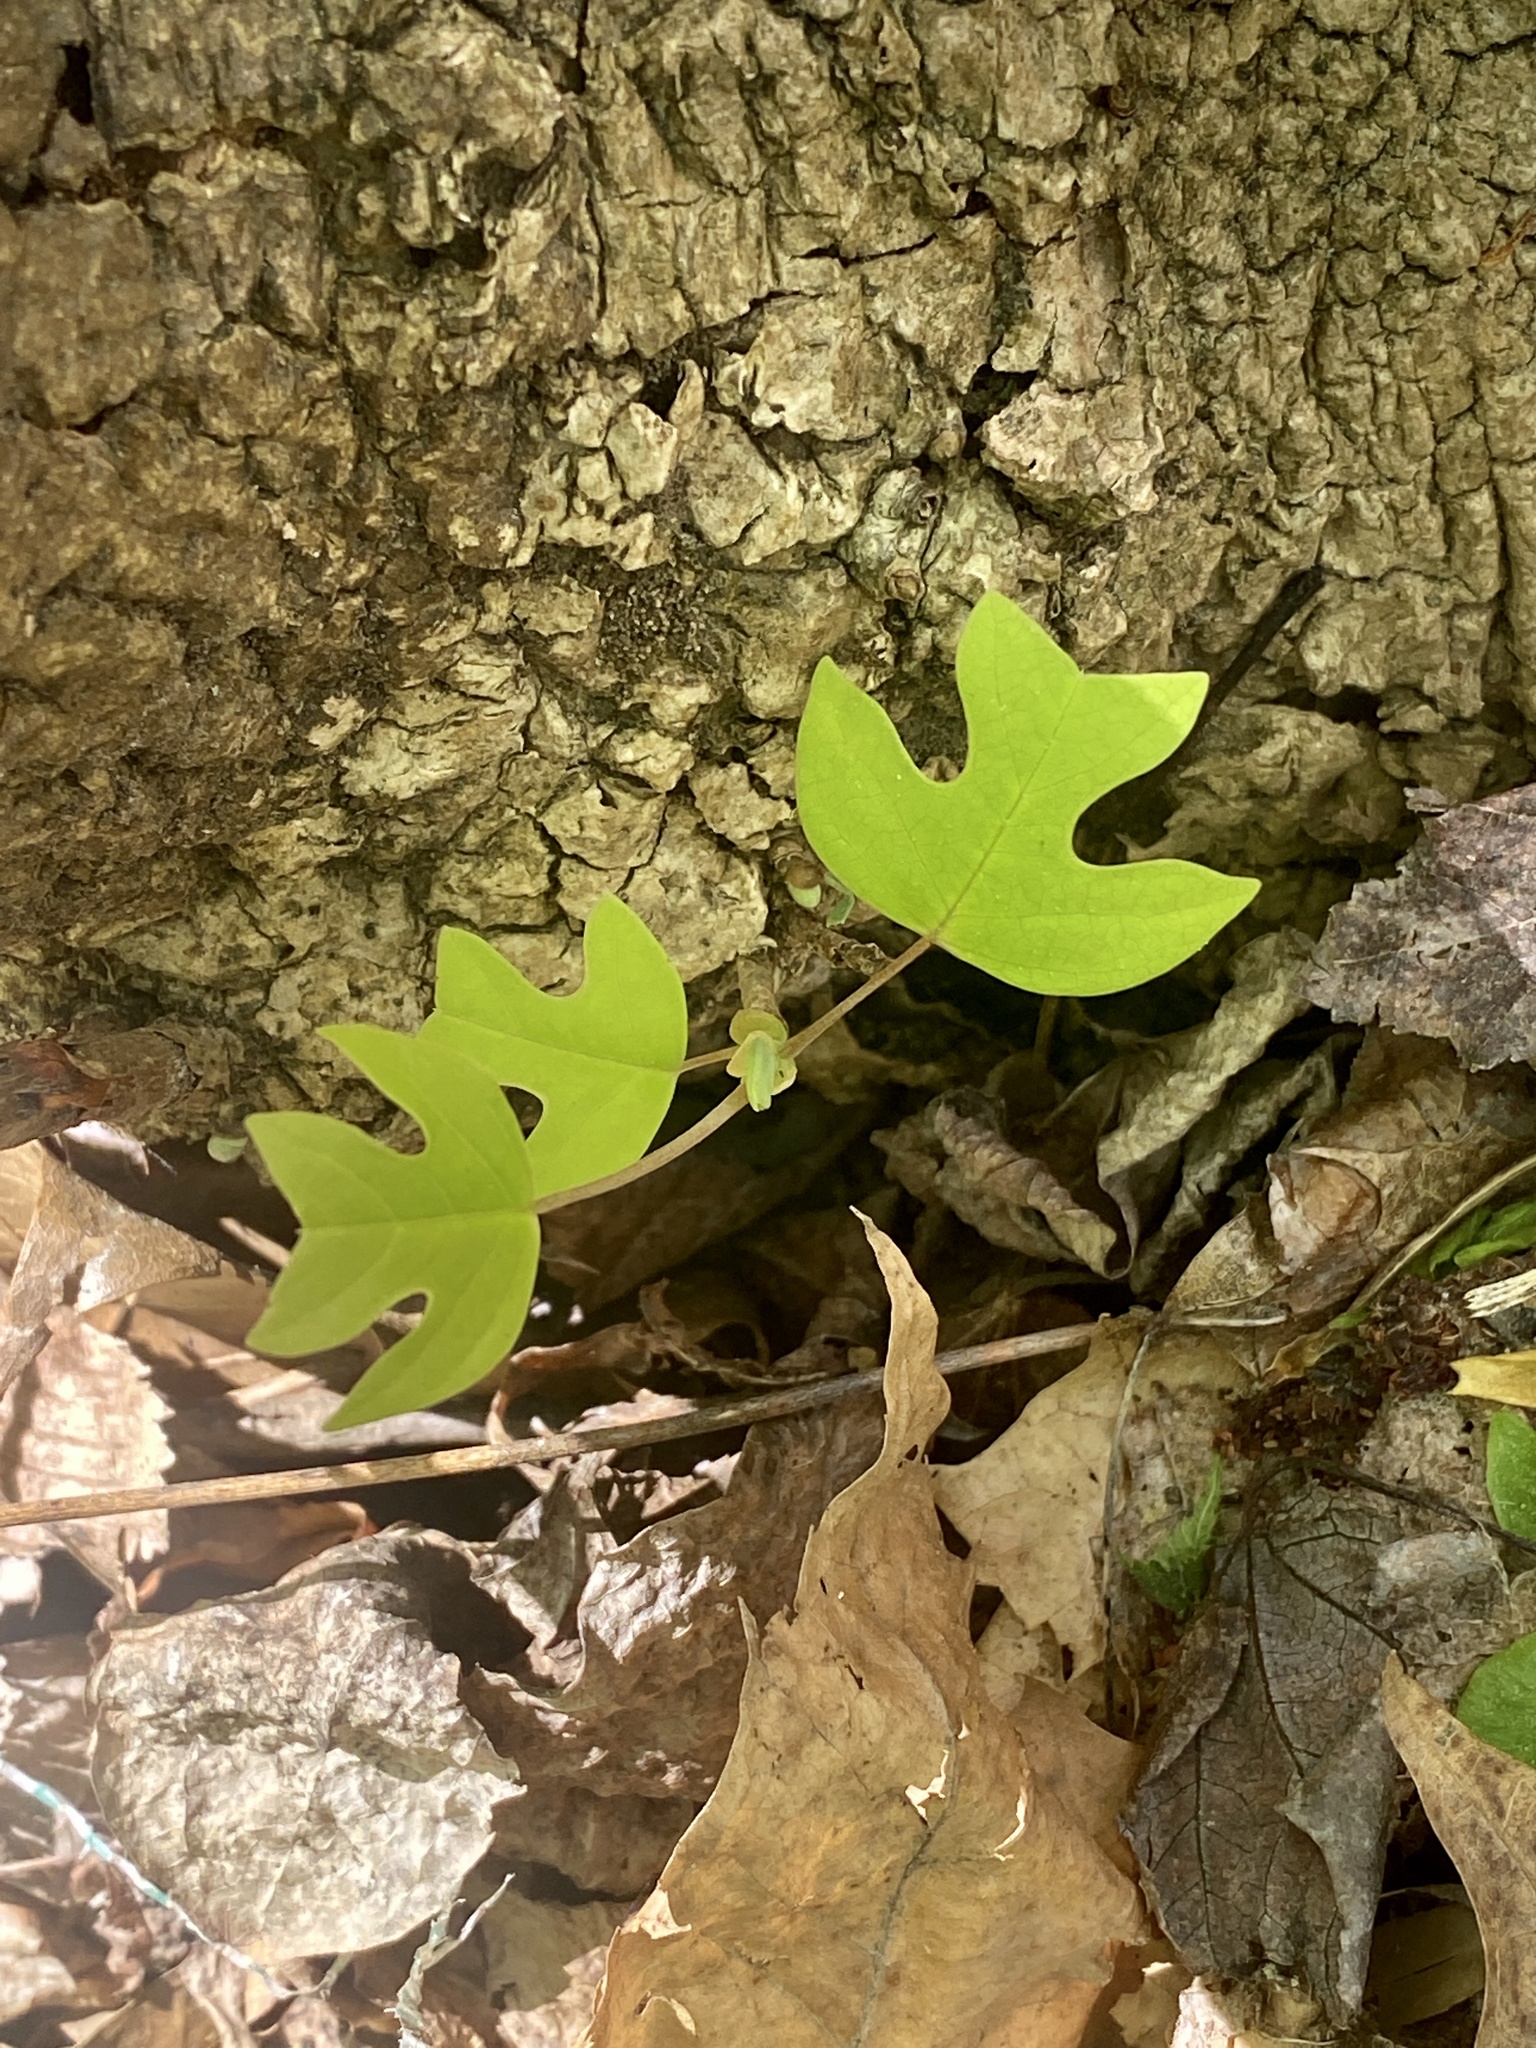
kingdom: Plantae
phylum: Tracheophyta
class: Magnoliopsida
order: Magnoliales
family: Magnoliaceae
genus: Liriodendron
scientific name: Liriodendron tulipifera
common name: Tulip tree
